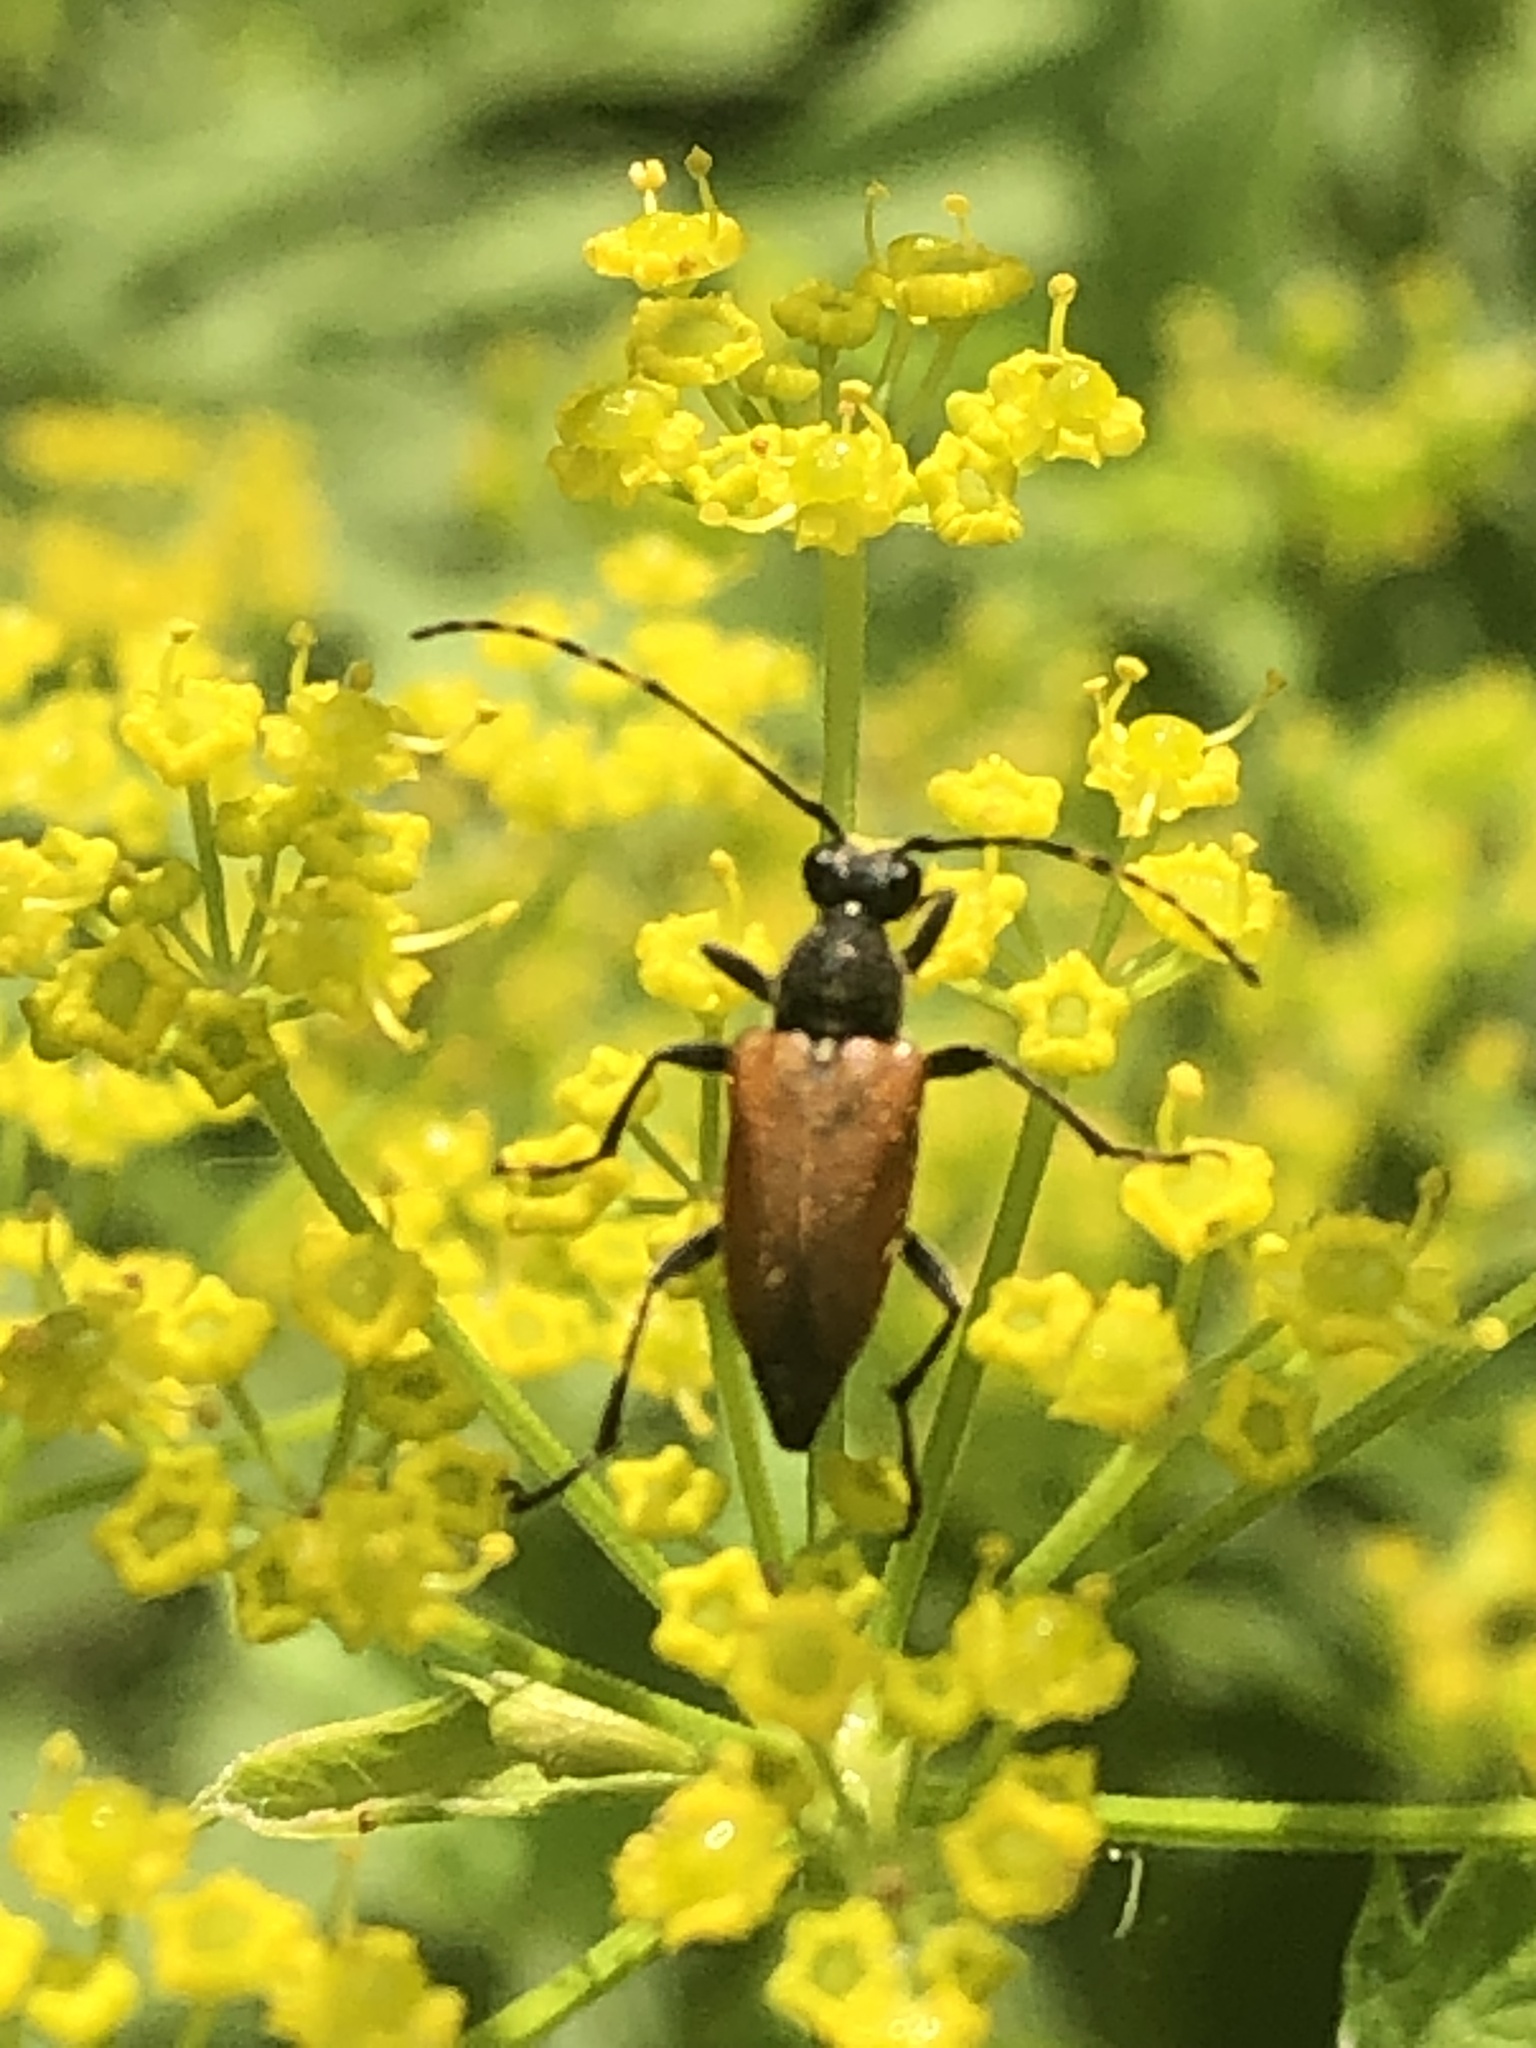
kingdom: Animalia
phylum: Arthropoda
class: Insecta
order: Coleoptera
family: Cerambycidae
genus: Brachyleptura
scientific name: Brachyleptura rubrica
